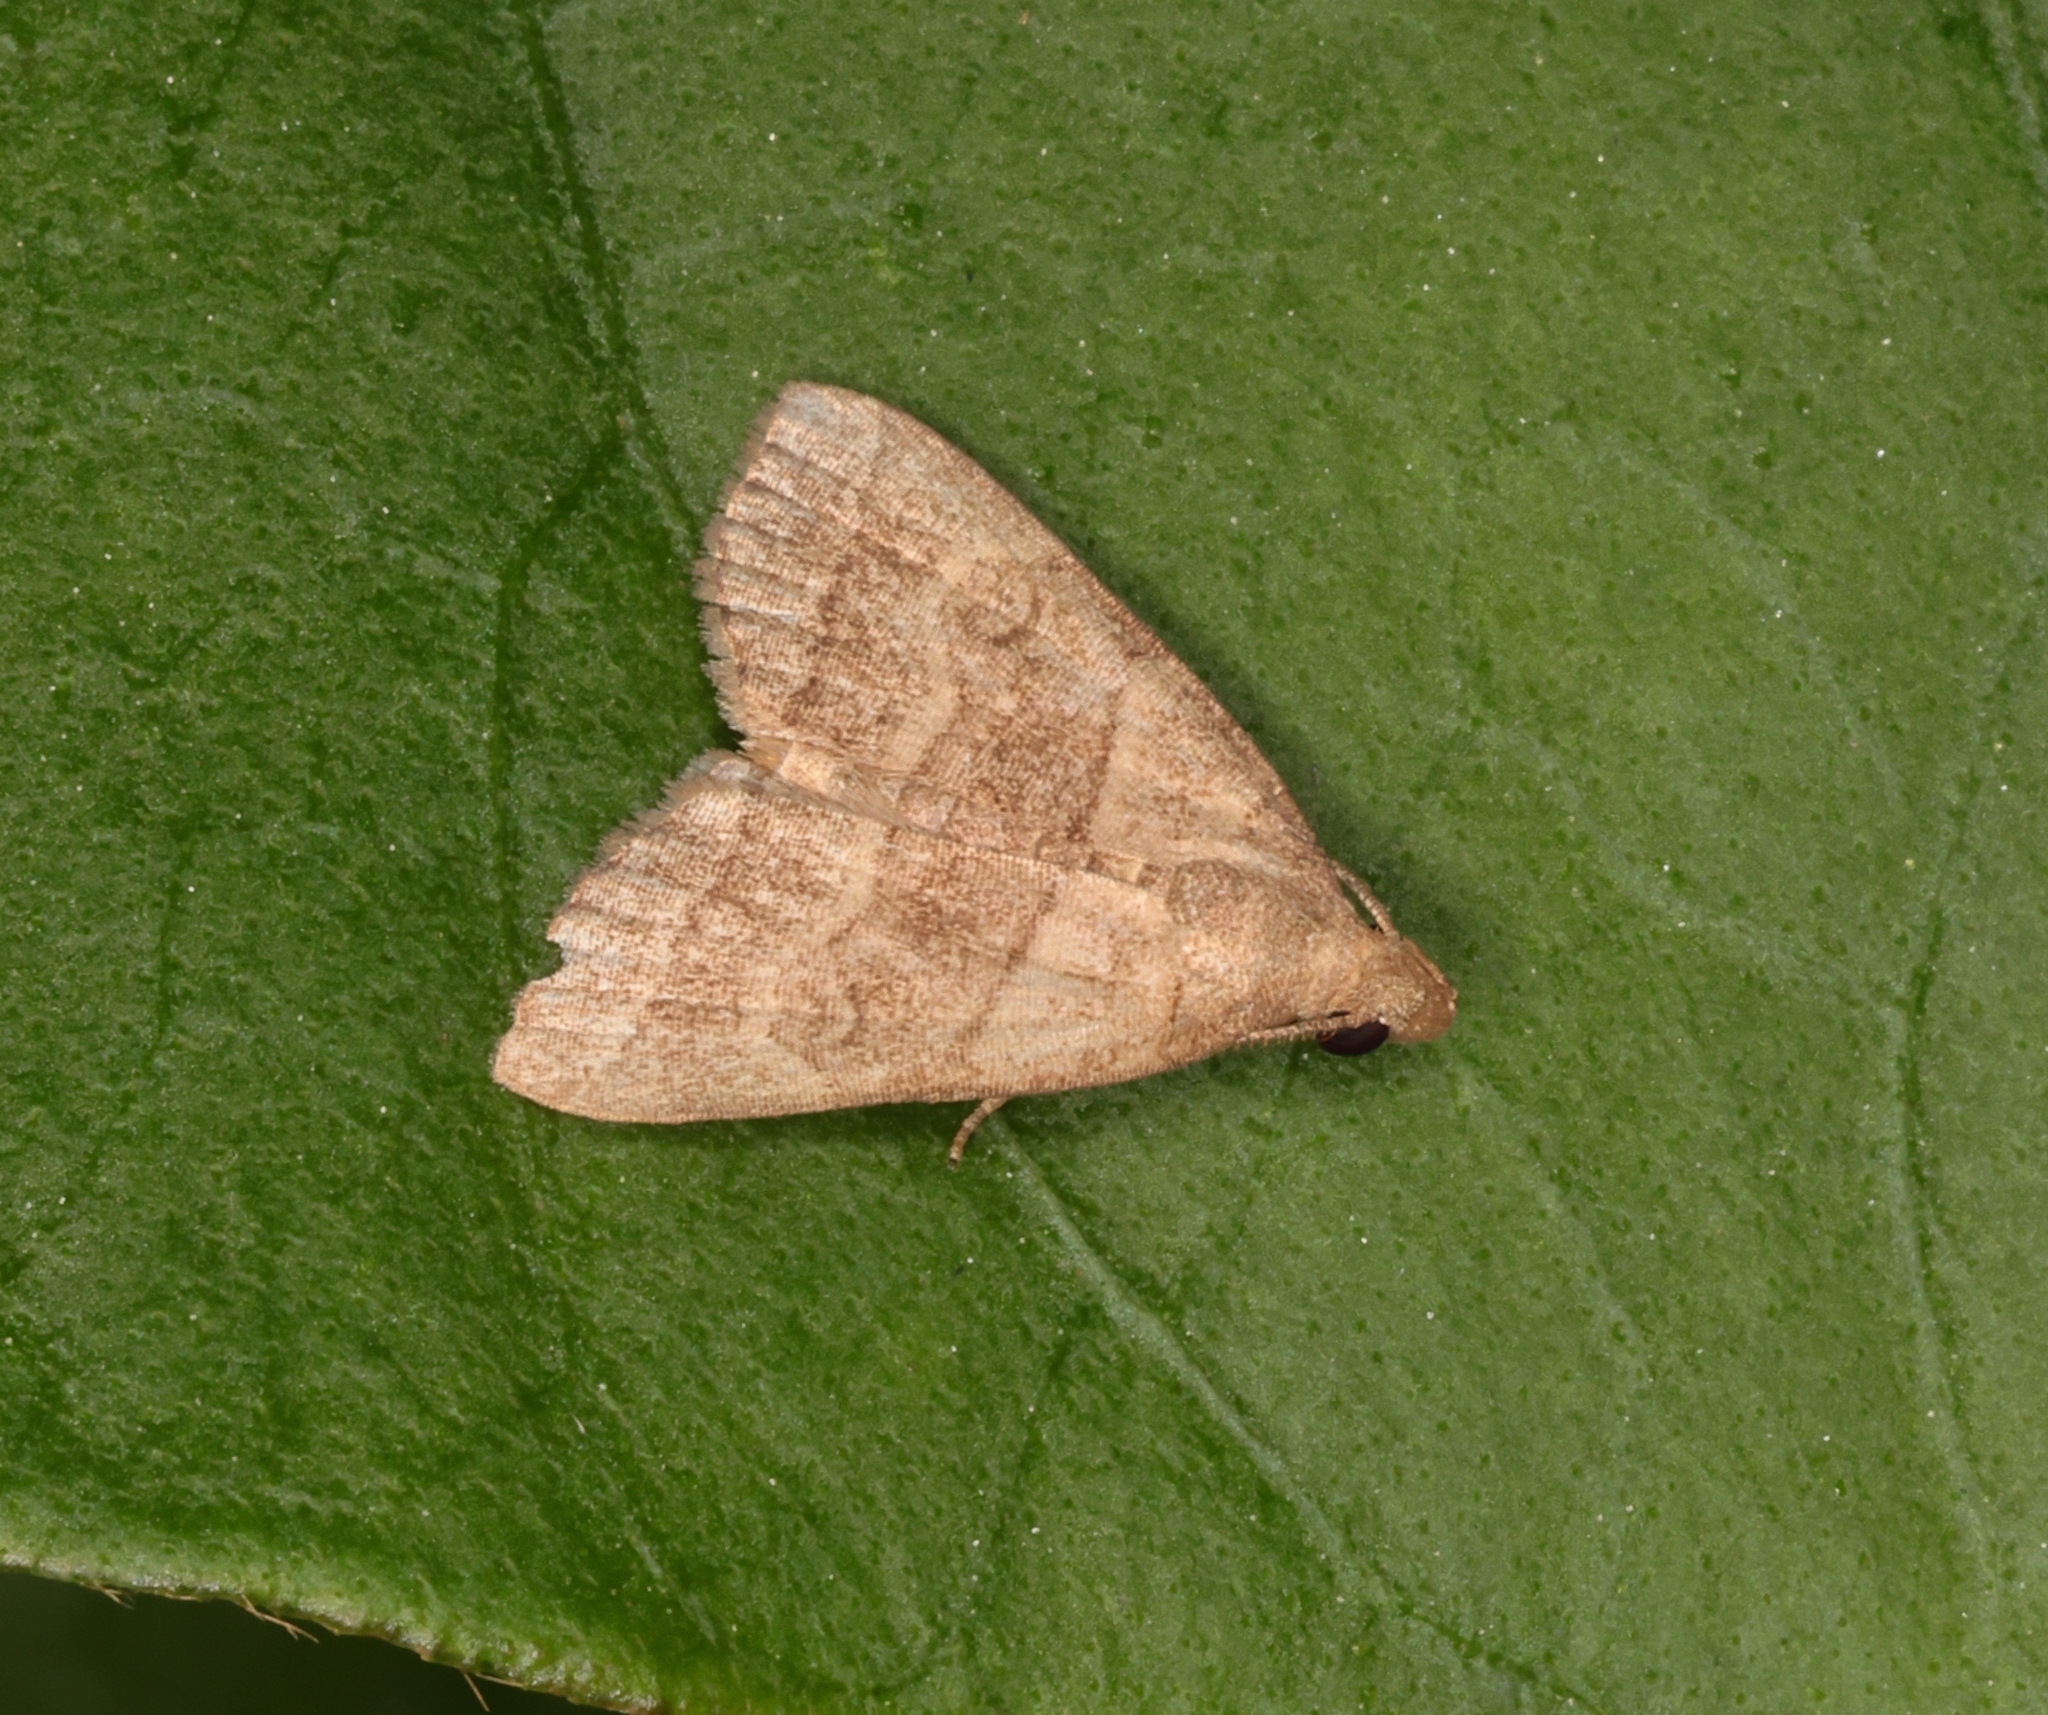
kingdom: Animalia
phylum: Arthropoda
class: Insecta
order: Lepidoptera
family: Erebidae
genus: Herminia
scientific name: Herminia annulata
